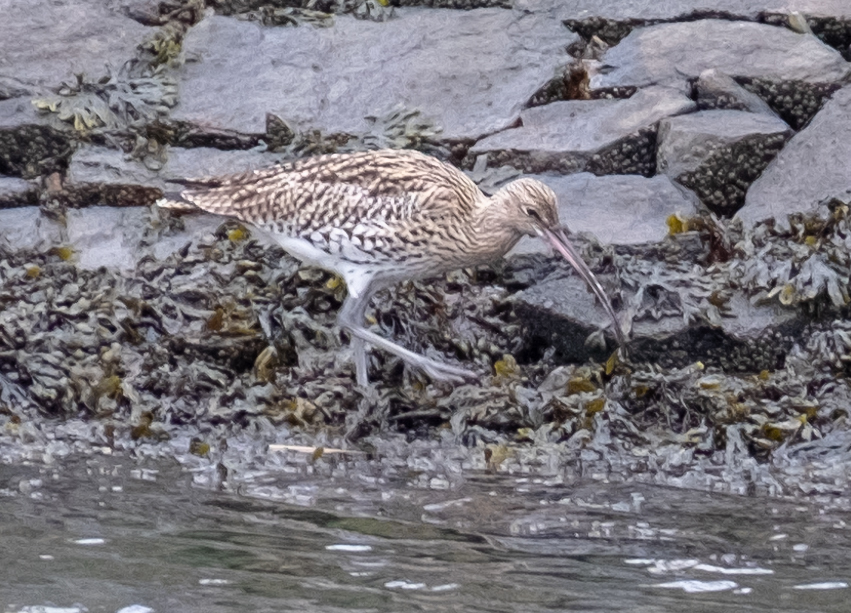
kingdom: Animalia
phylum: Chordata
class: Aves
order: Charadriiformes
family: Scolopacidae
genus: Numenius
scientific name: Numenius arquata
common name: Eurasian curlew
